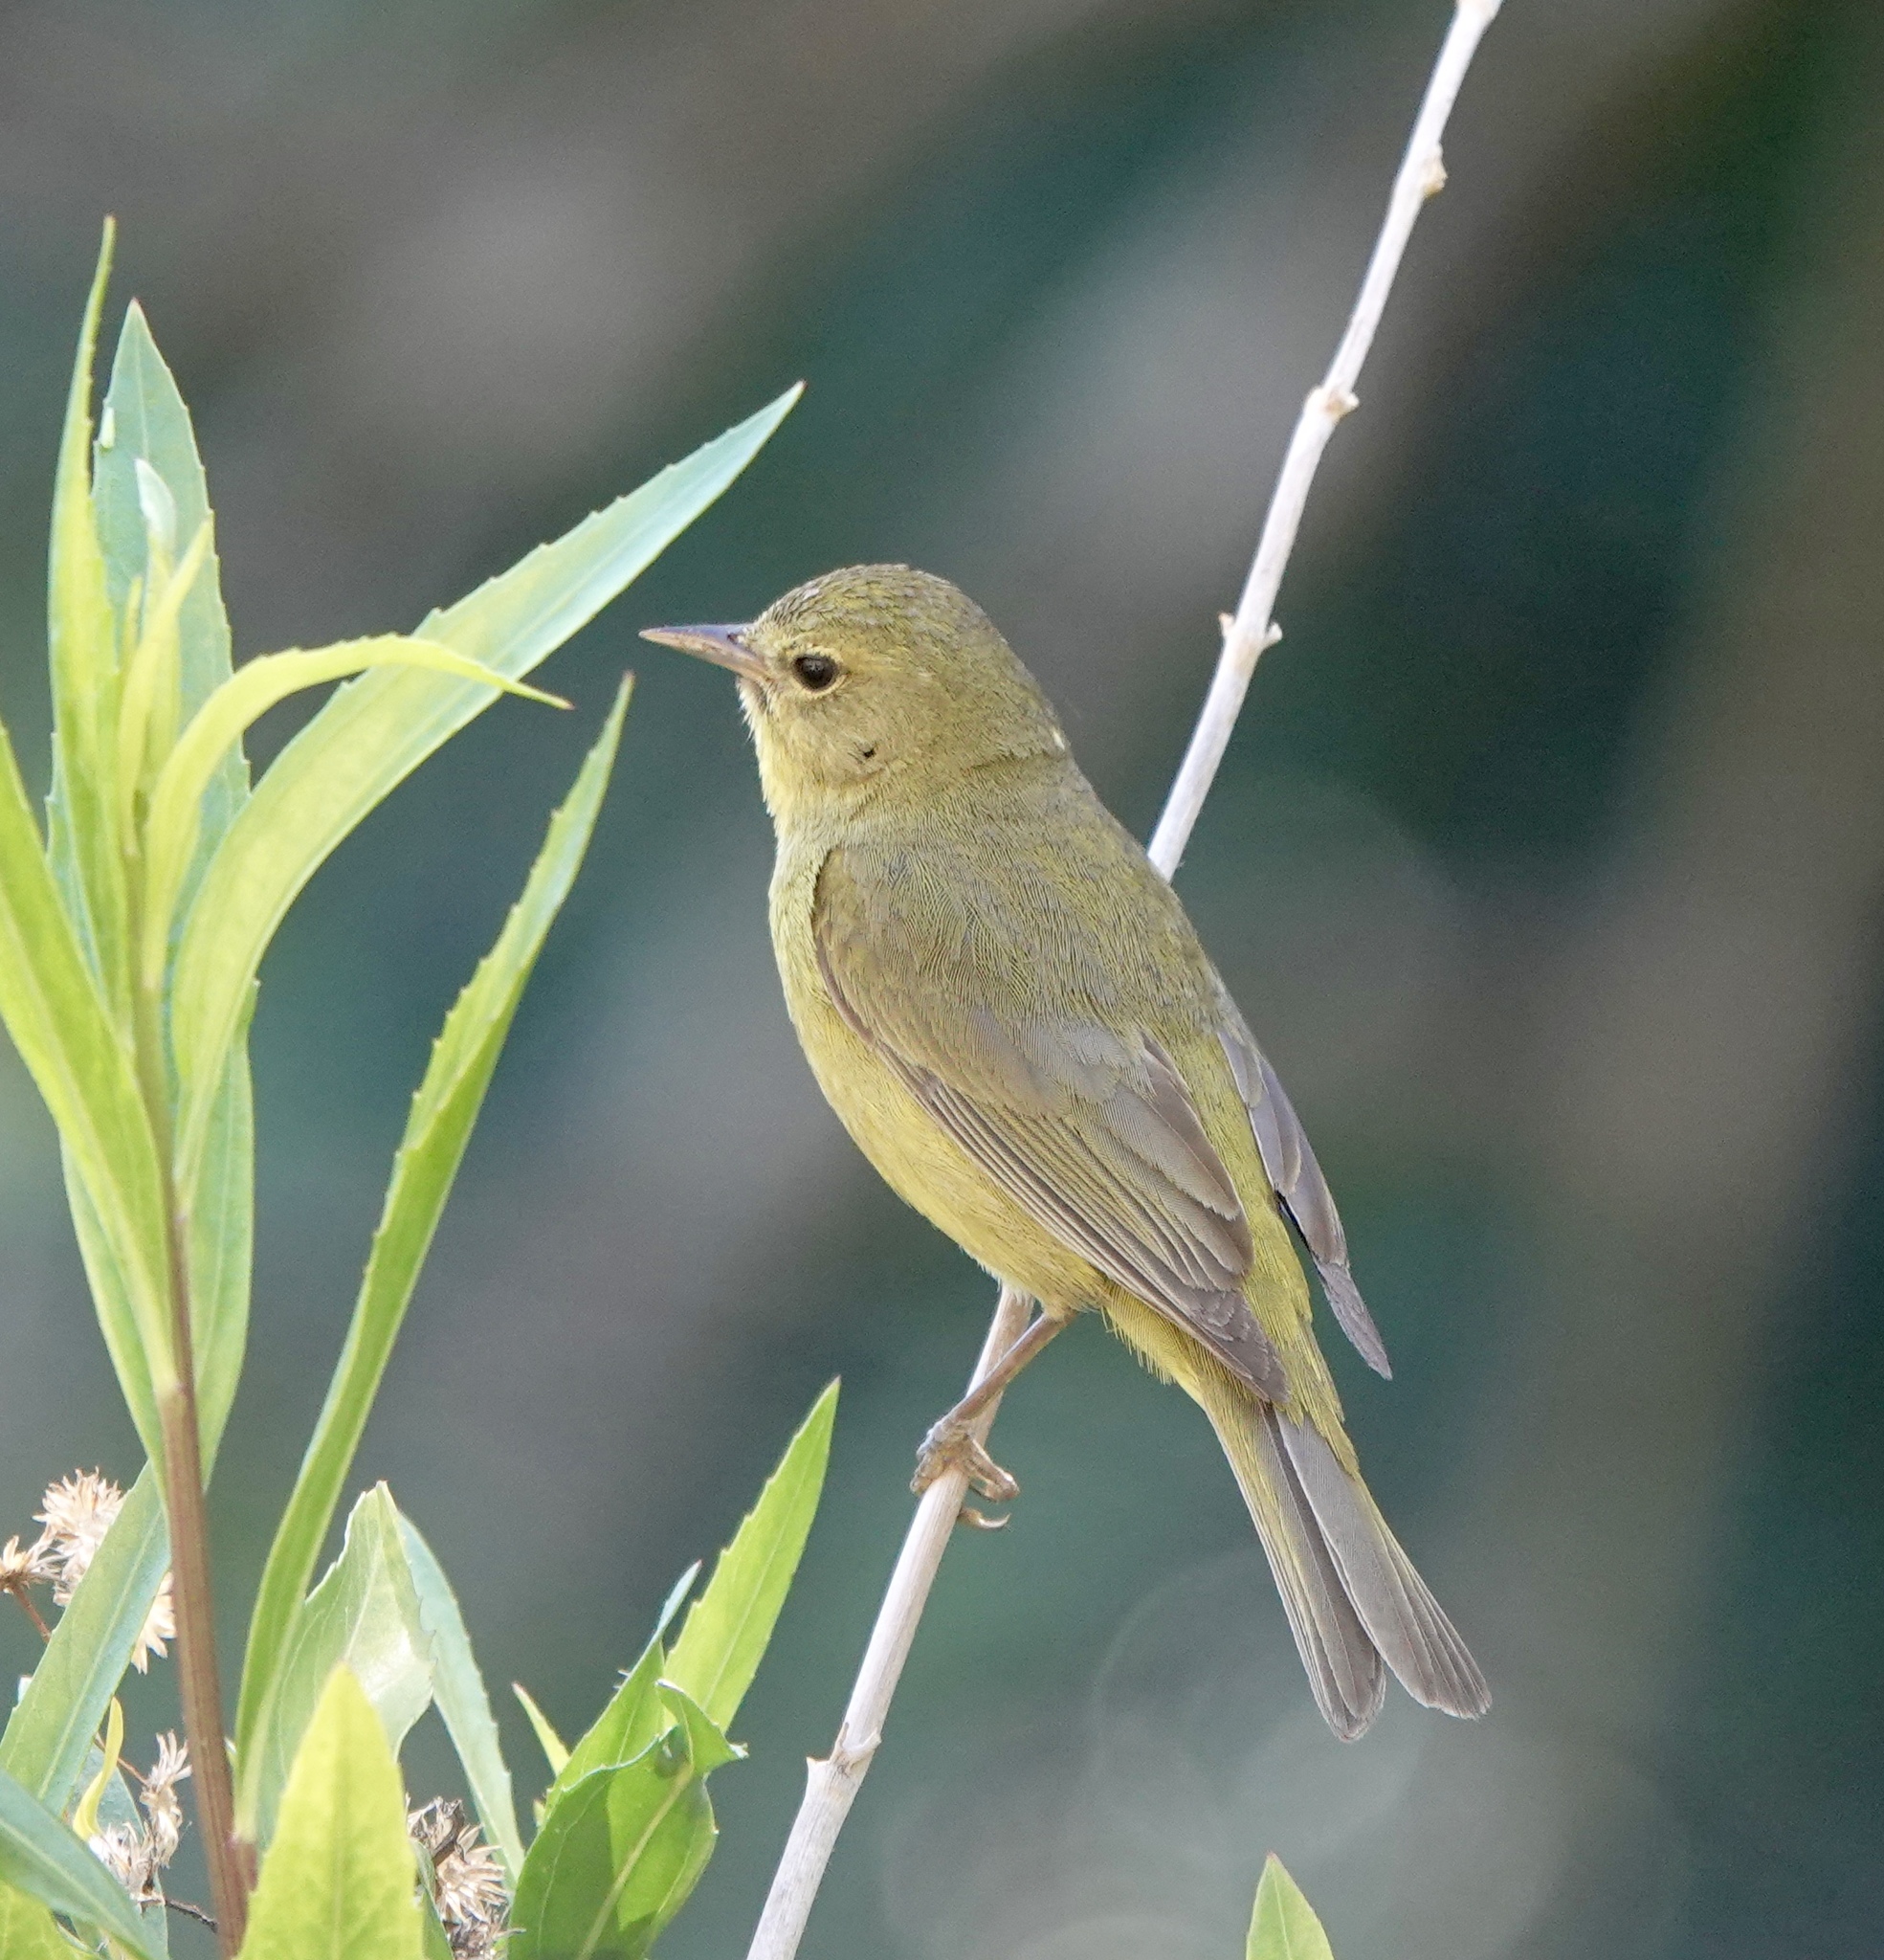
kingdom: Animalia
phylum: Chordata
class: Aves
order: Passeriformes
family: Parulidae
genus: Leiothlypis
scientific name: Leiothlypis celata
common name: Orange-crowned warbler
